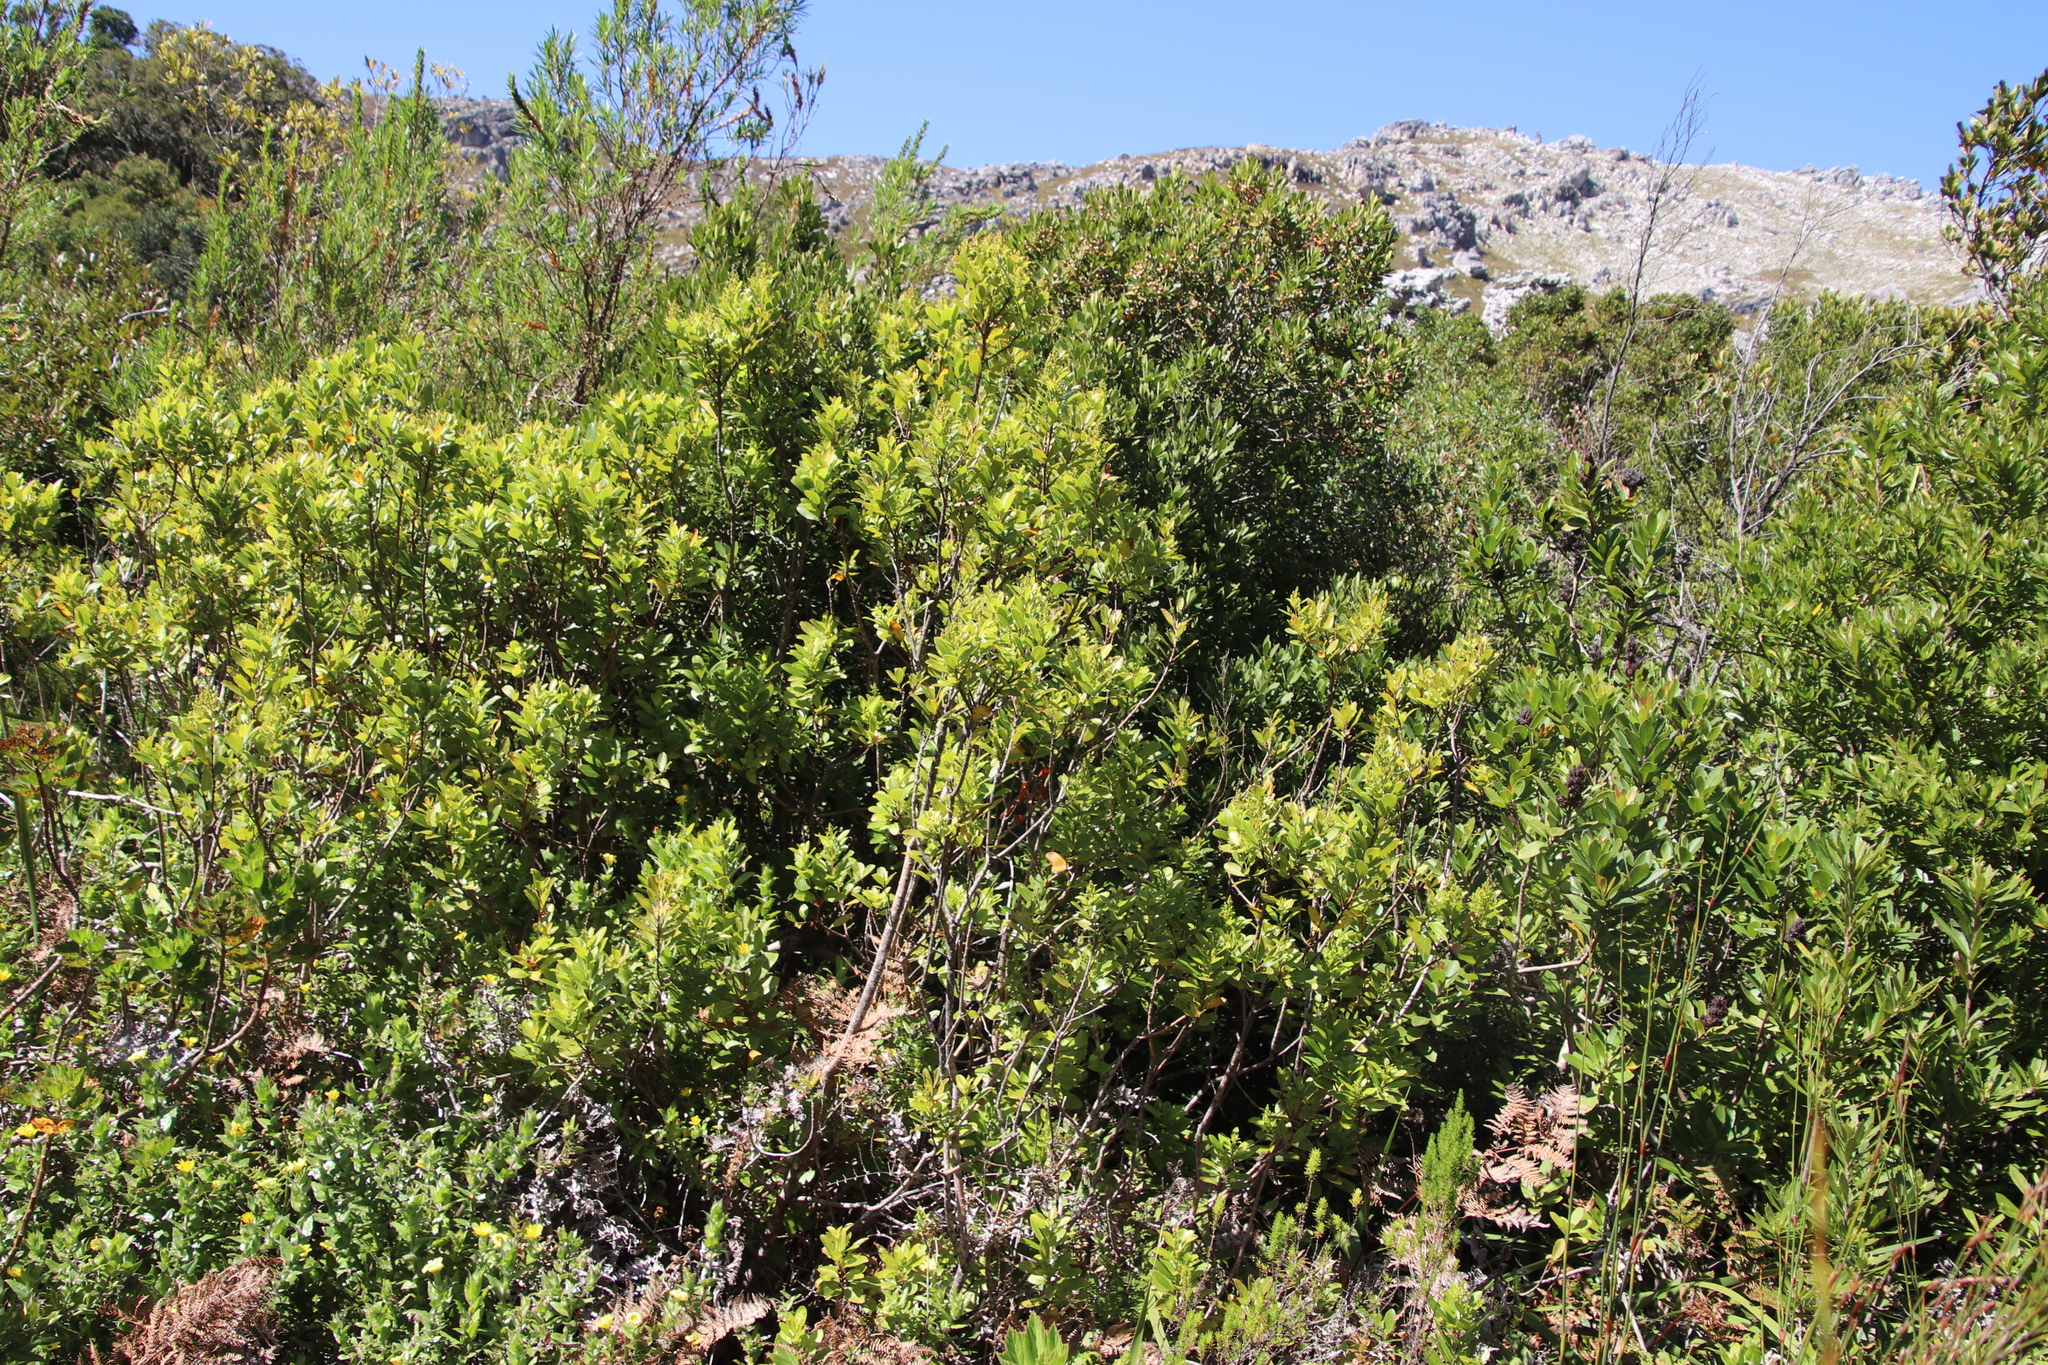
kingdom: Plantae
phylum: Tracheophyta
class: Magnoliopsida
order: Fagales
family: Myricaceae
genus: Morella
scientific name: Morella serrata
